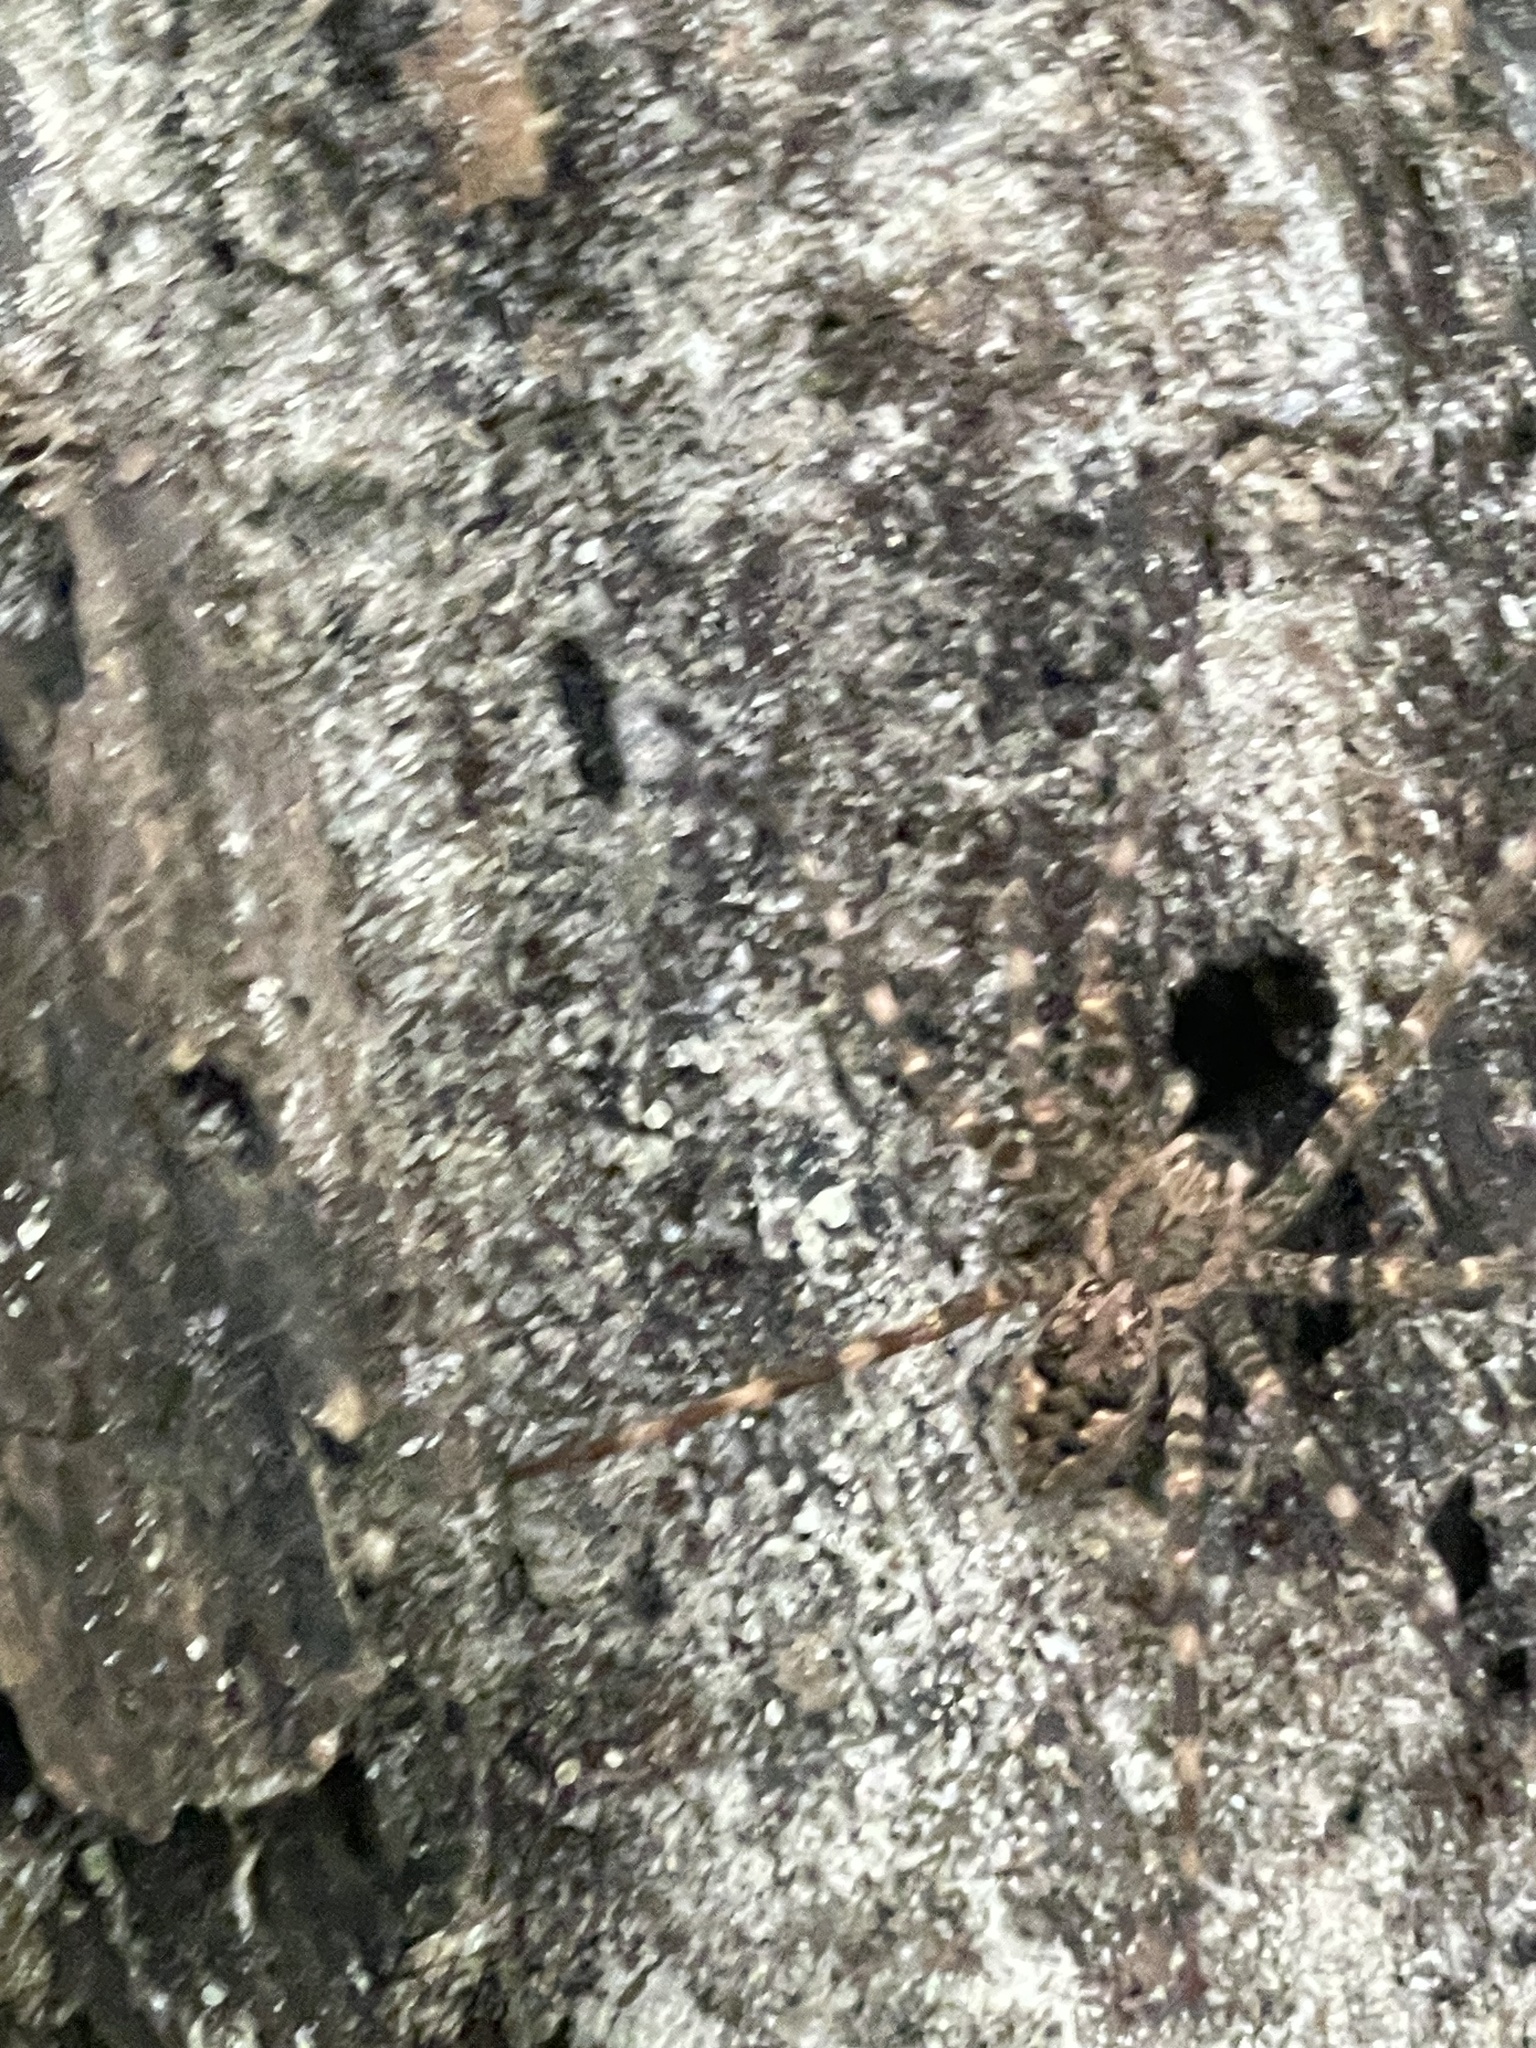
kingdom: Animalia
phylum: Arthropoda
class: Arachnida
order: Araneae
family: Pisauridae
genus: Dolomedes
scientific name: Dolomedes tenebrosus
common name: Dark fishing spider
